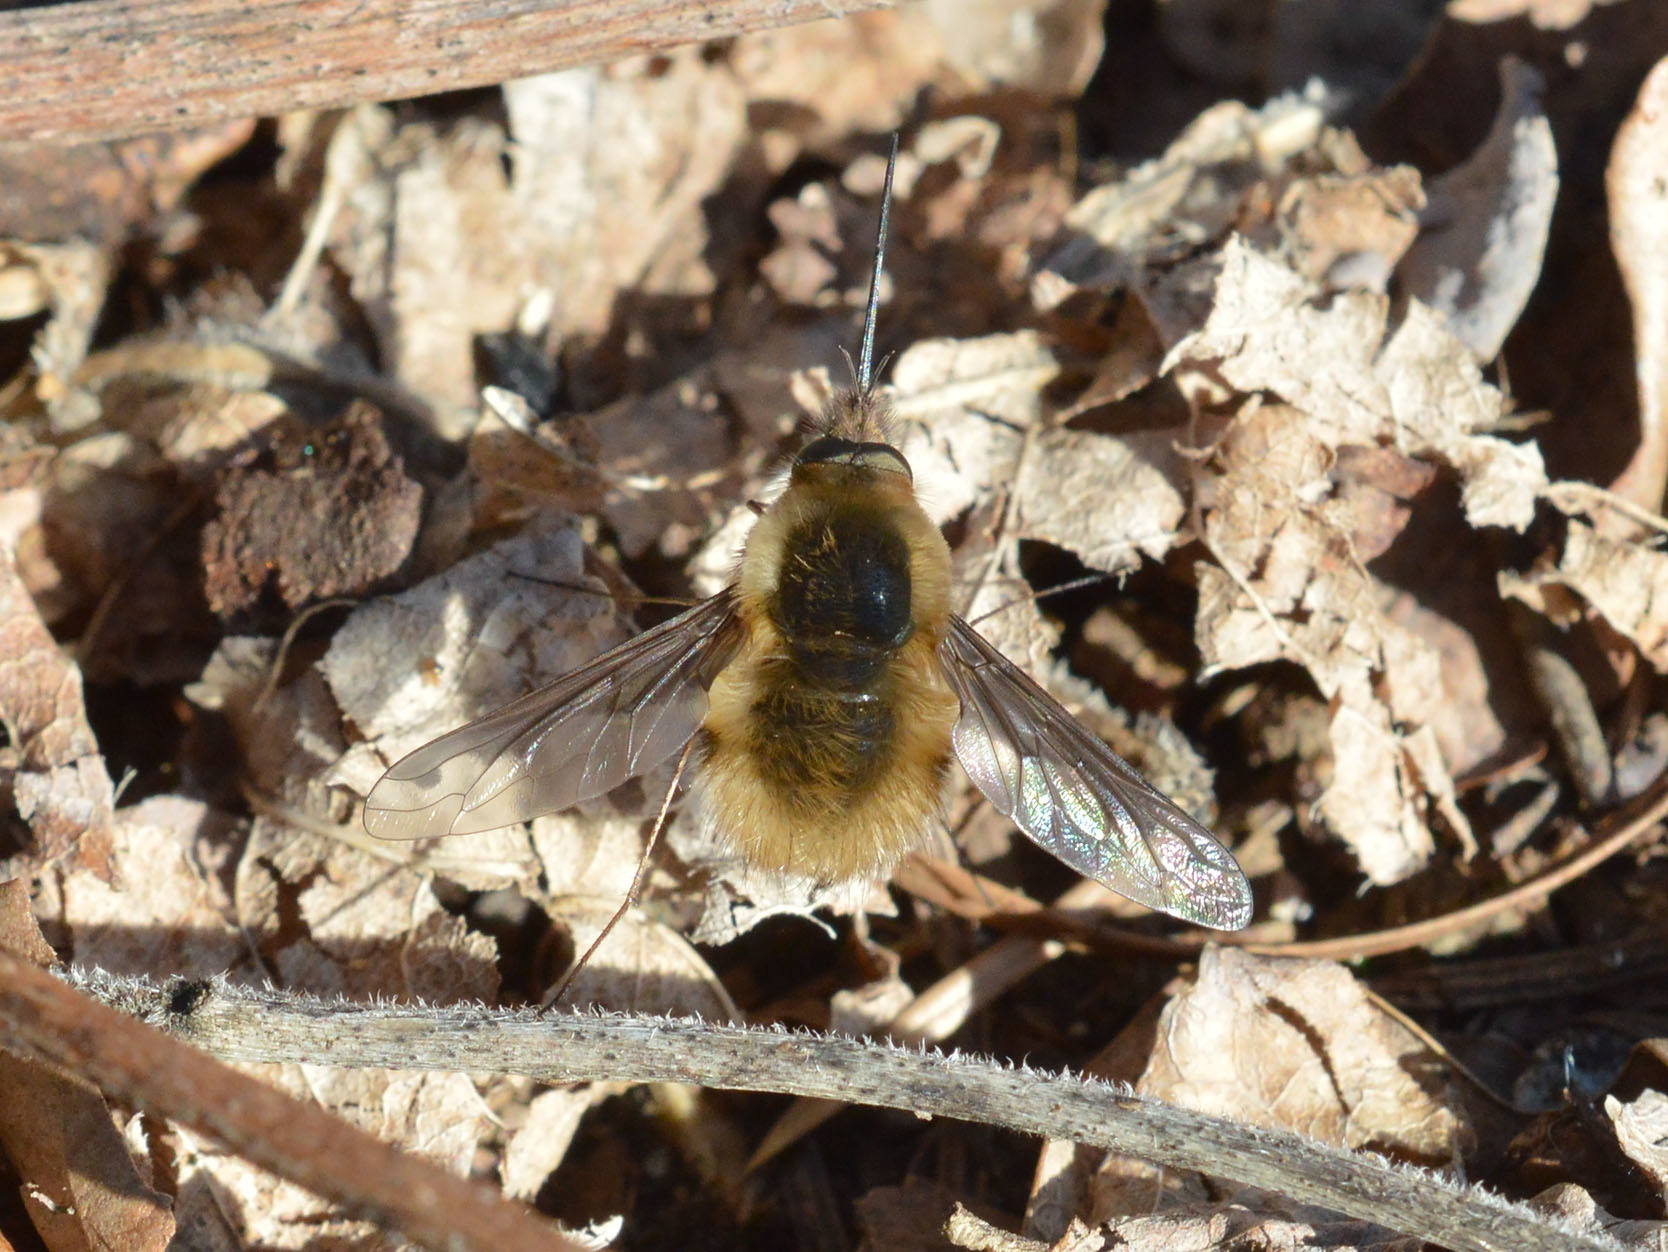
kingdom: Animalia
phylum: Arthropoda
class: Insecta
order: Diptera
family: Bombyliidae
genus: Bombylius
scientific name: Bombylius major
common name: Bee fly
